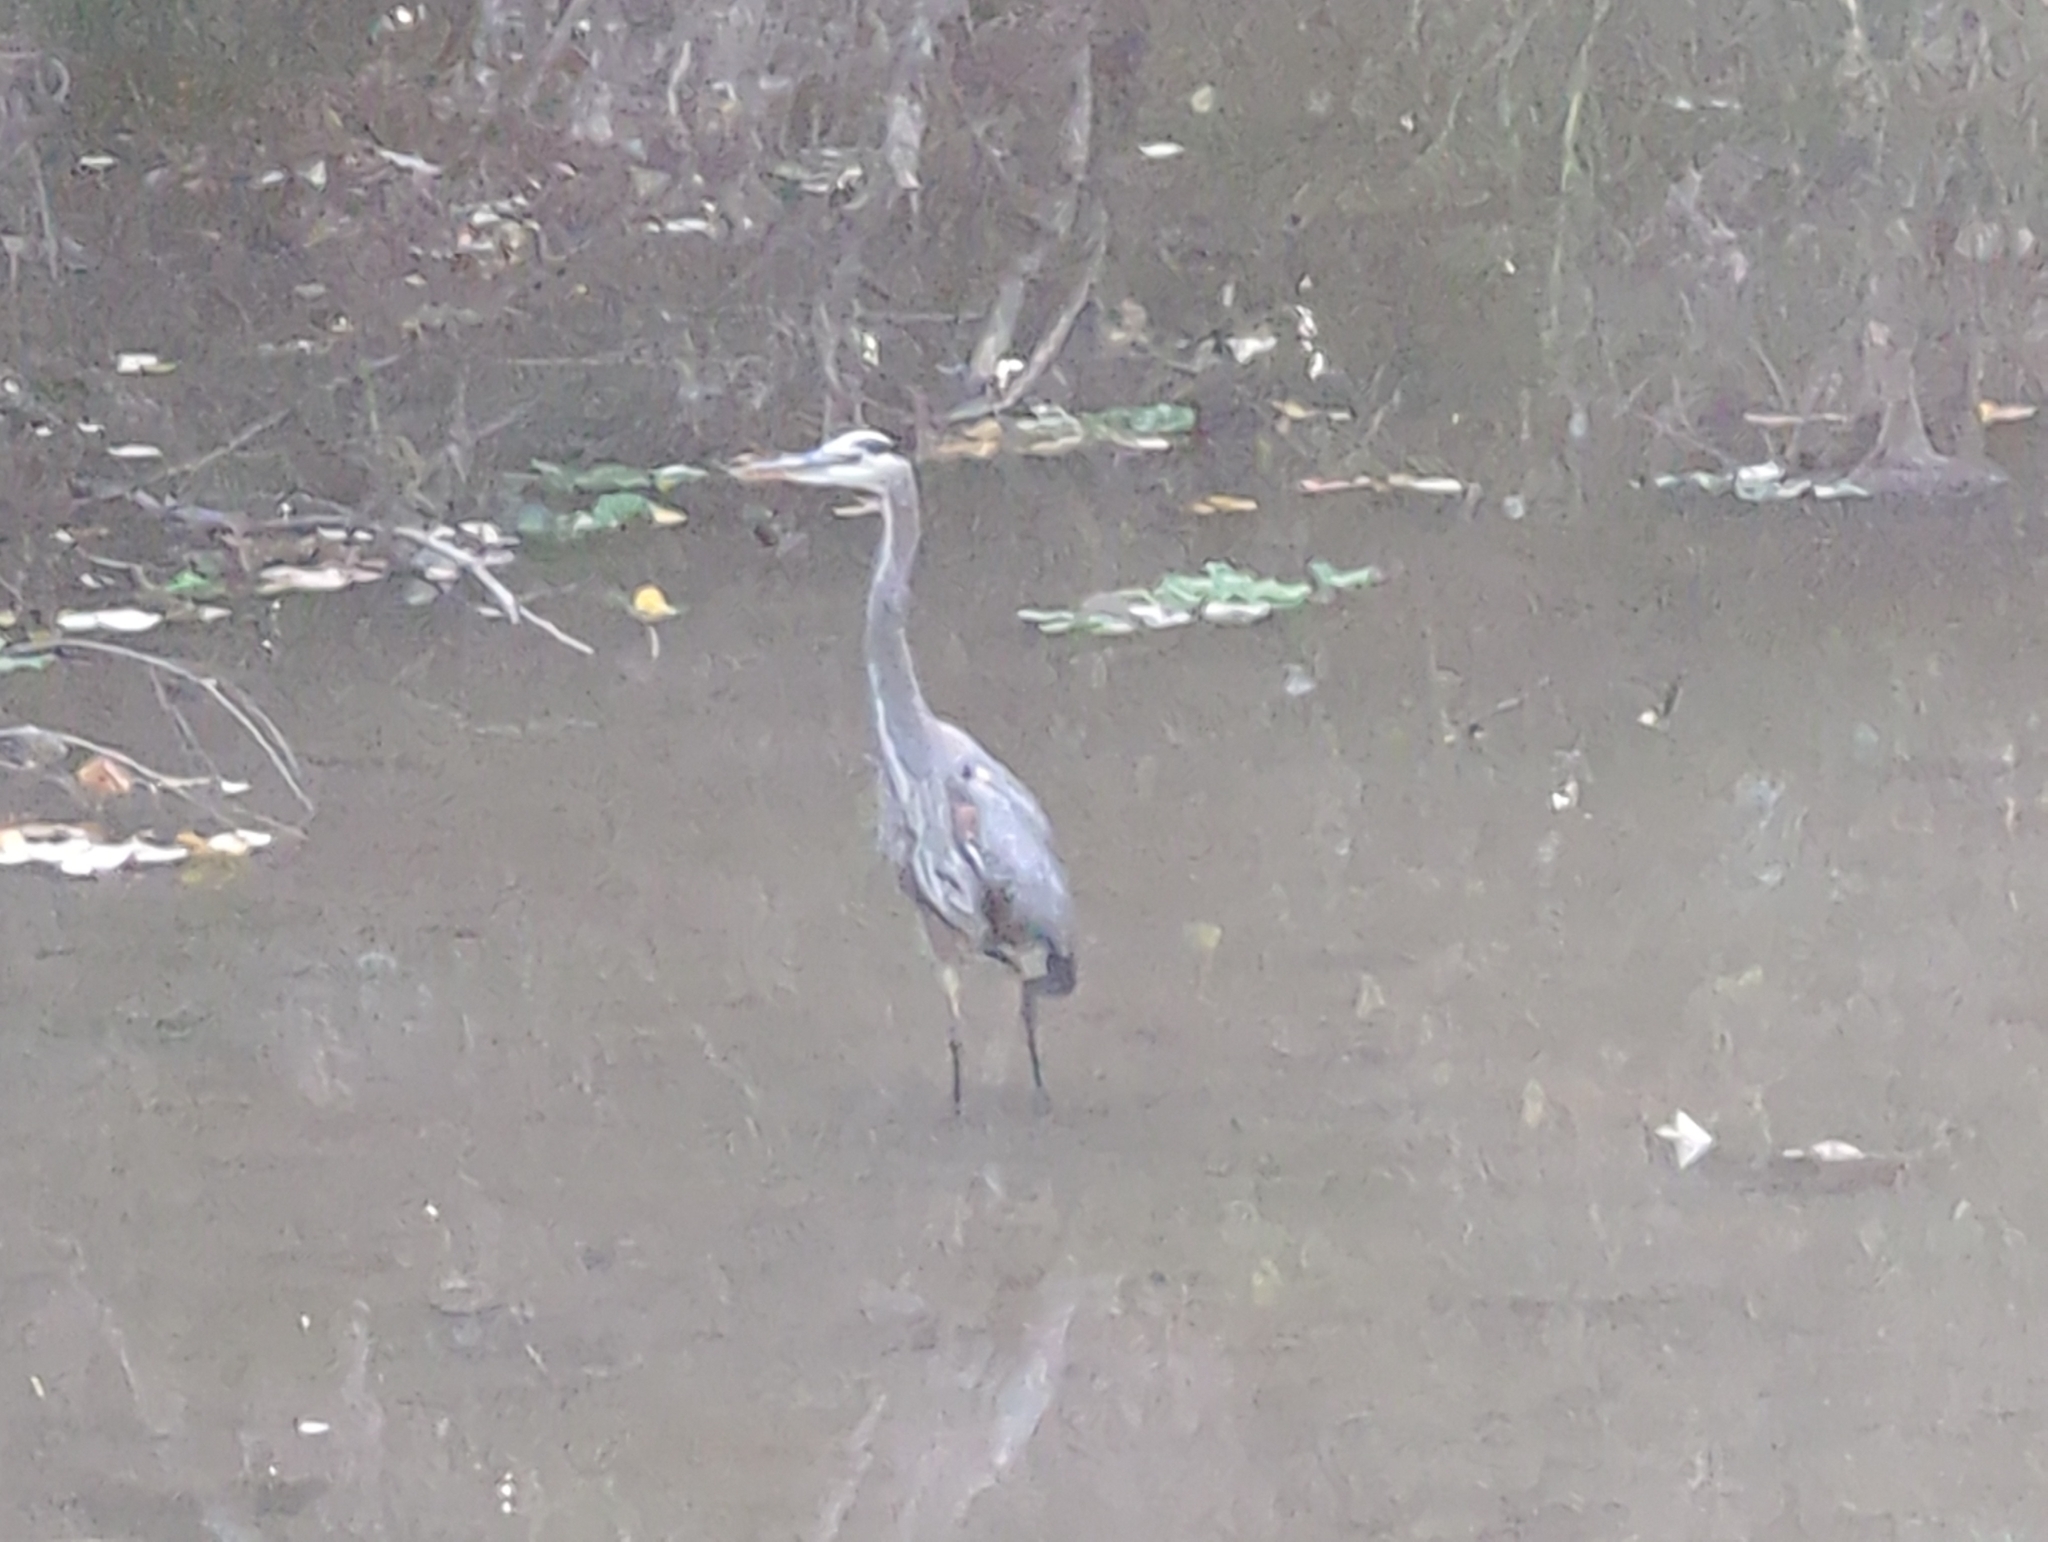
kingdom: Animalia
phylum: Chordata
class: Aves
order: Pelecaniformes
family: Ardeidae
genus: Ardea
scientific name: Ardea herodias
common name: Great blue heron
